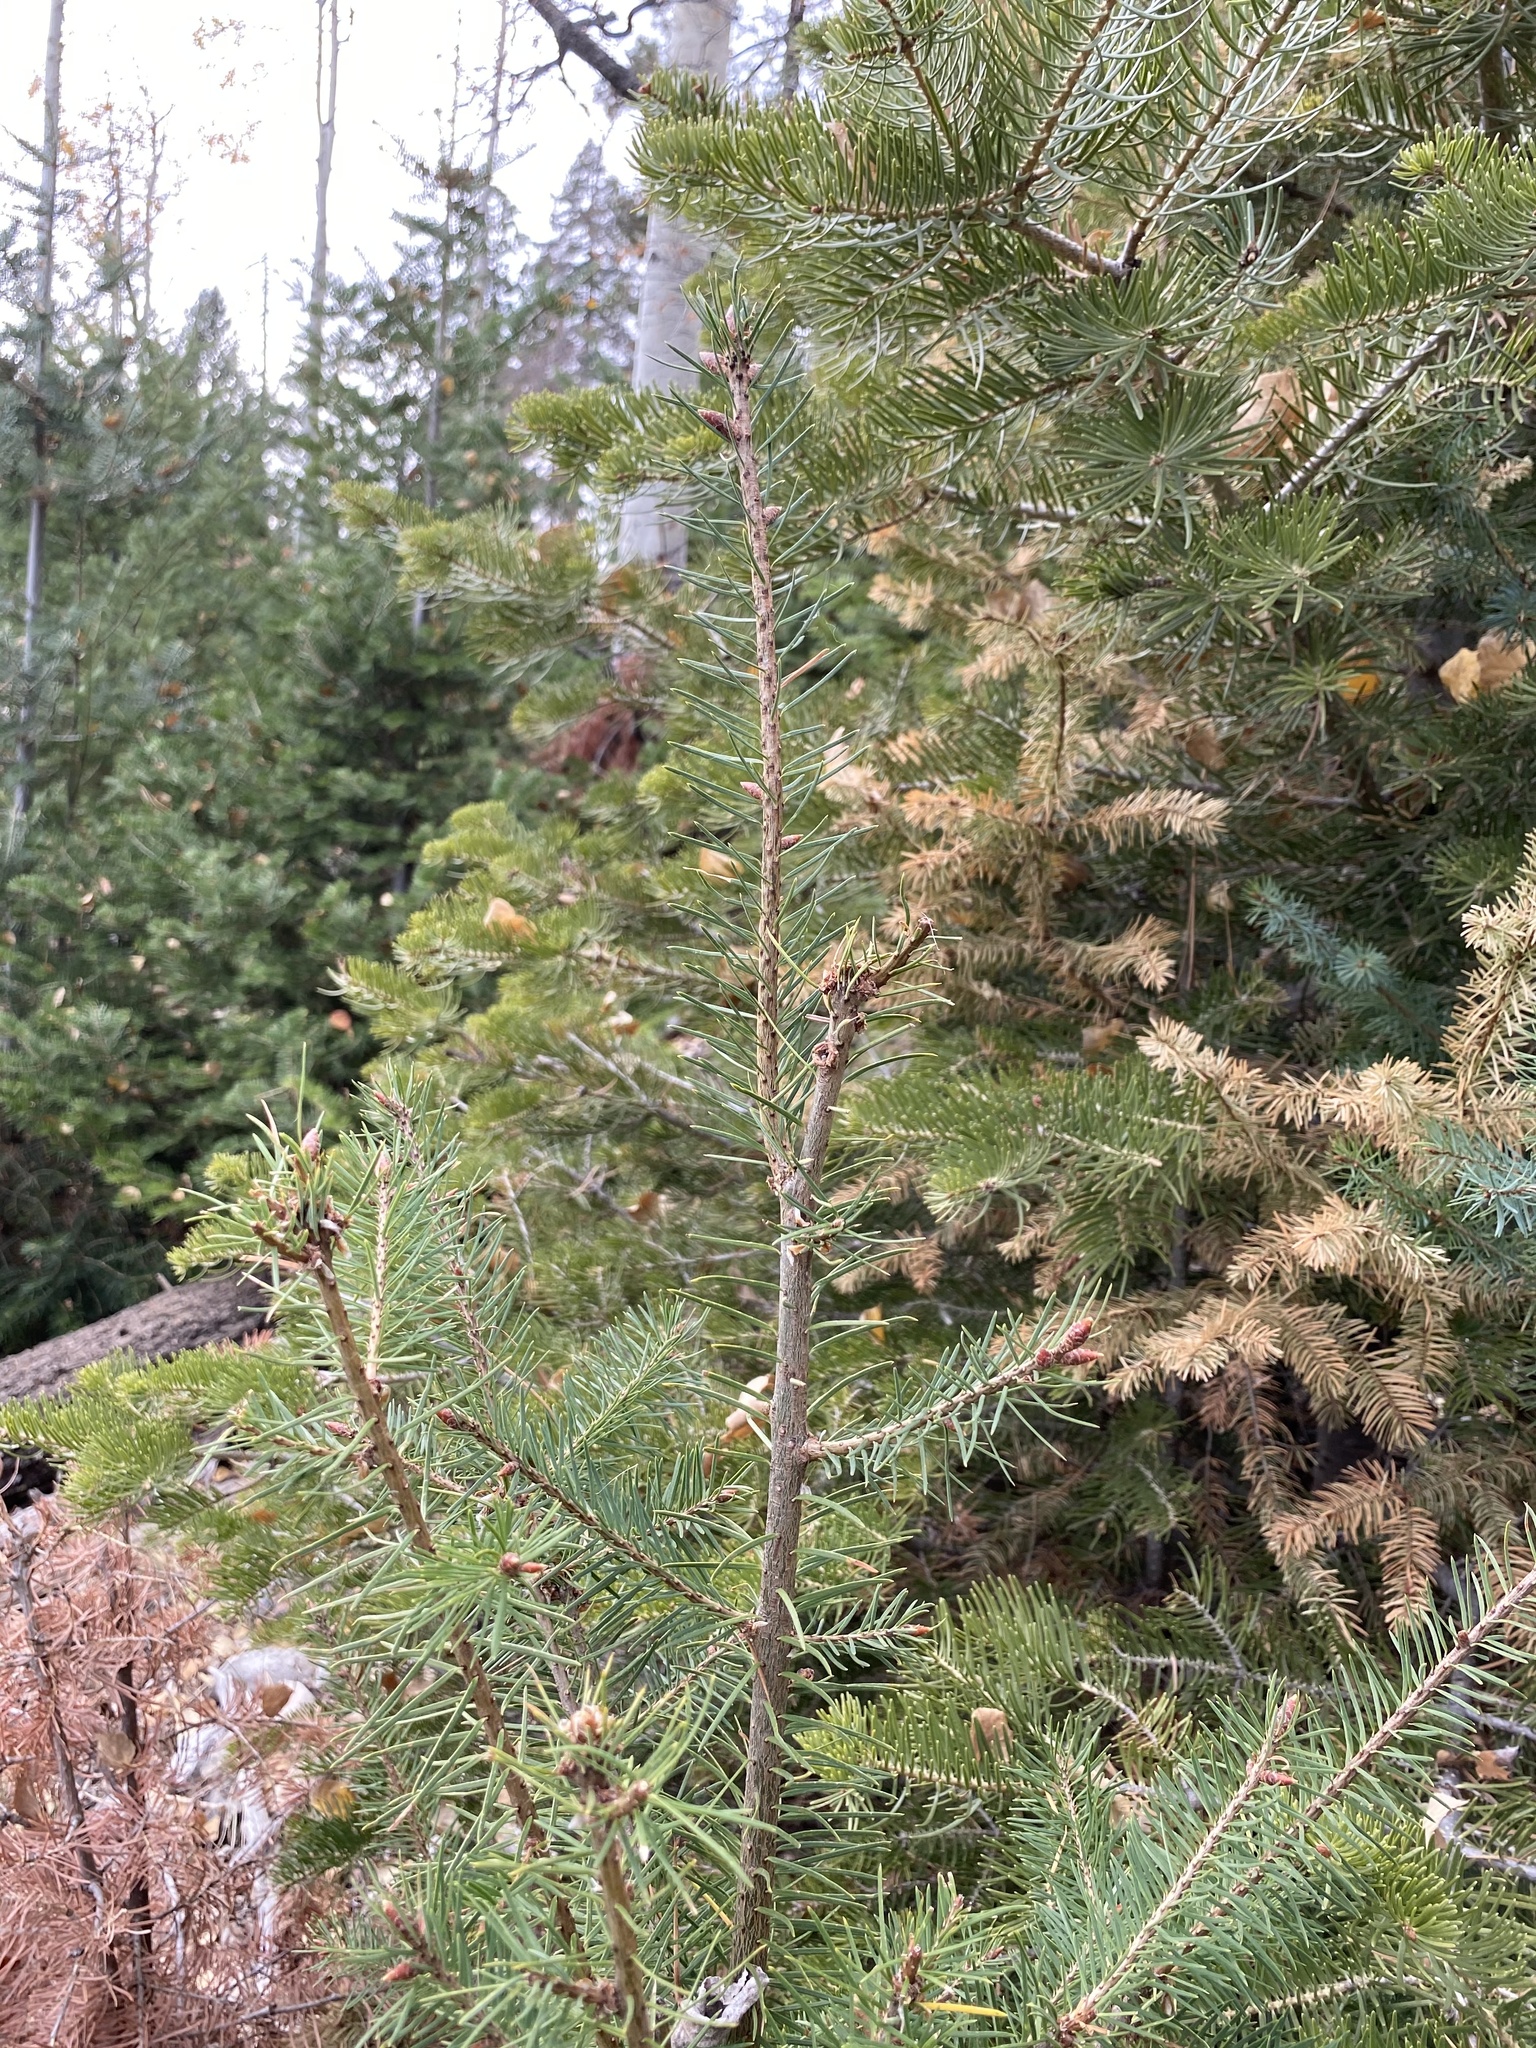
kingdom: Plantae
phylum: Tracheophyta
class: Pinopsida
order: Pinales
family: Pinaceae
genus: Pseudotsuga
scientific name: Pseudotsuga menziesii
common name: Douglas fir
